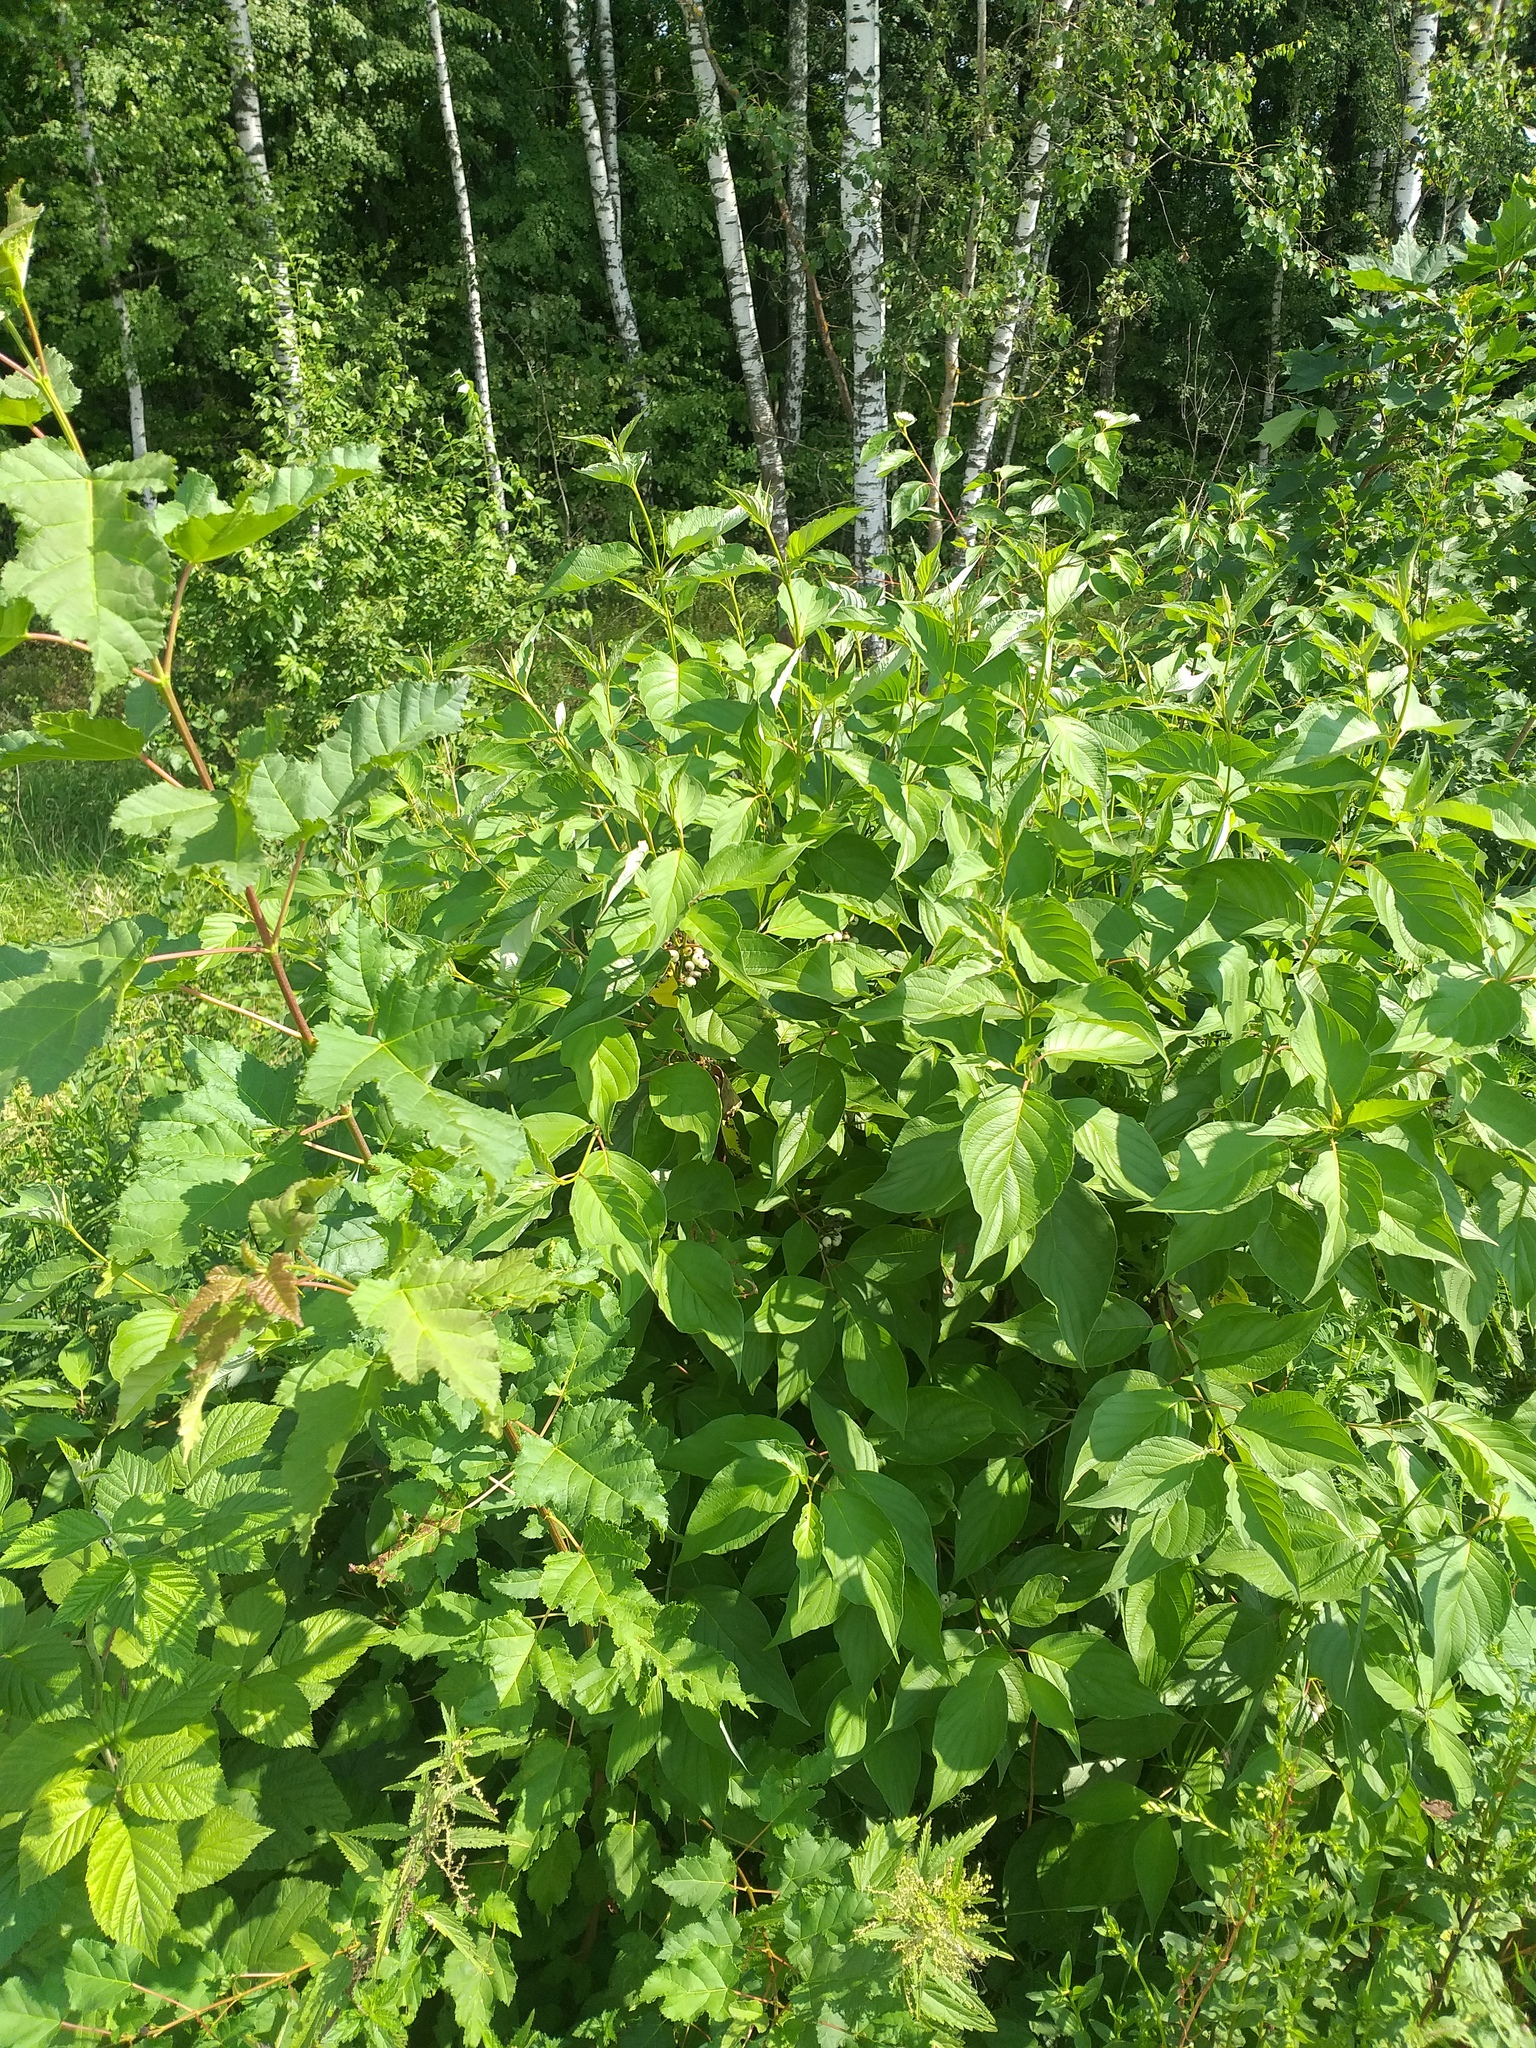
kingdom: Plantae
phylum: Tracheophyta
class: Magnoliopsida
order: Cornales
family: Cornaceae
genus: Cornus
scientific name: Cornus alba
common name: White dogwood
